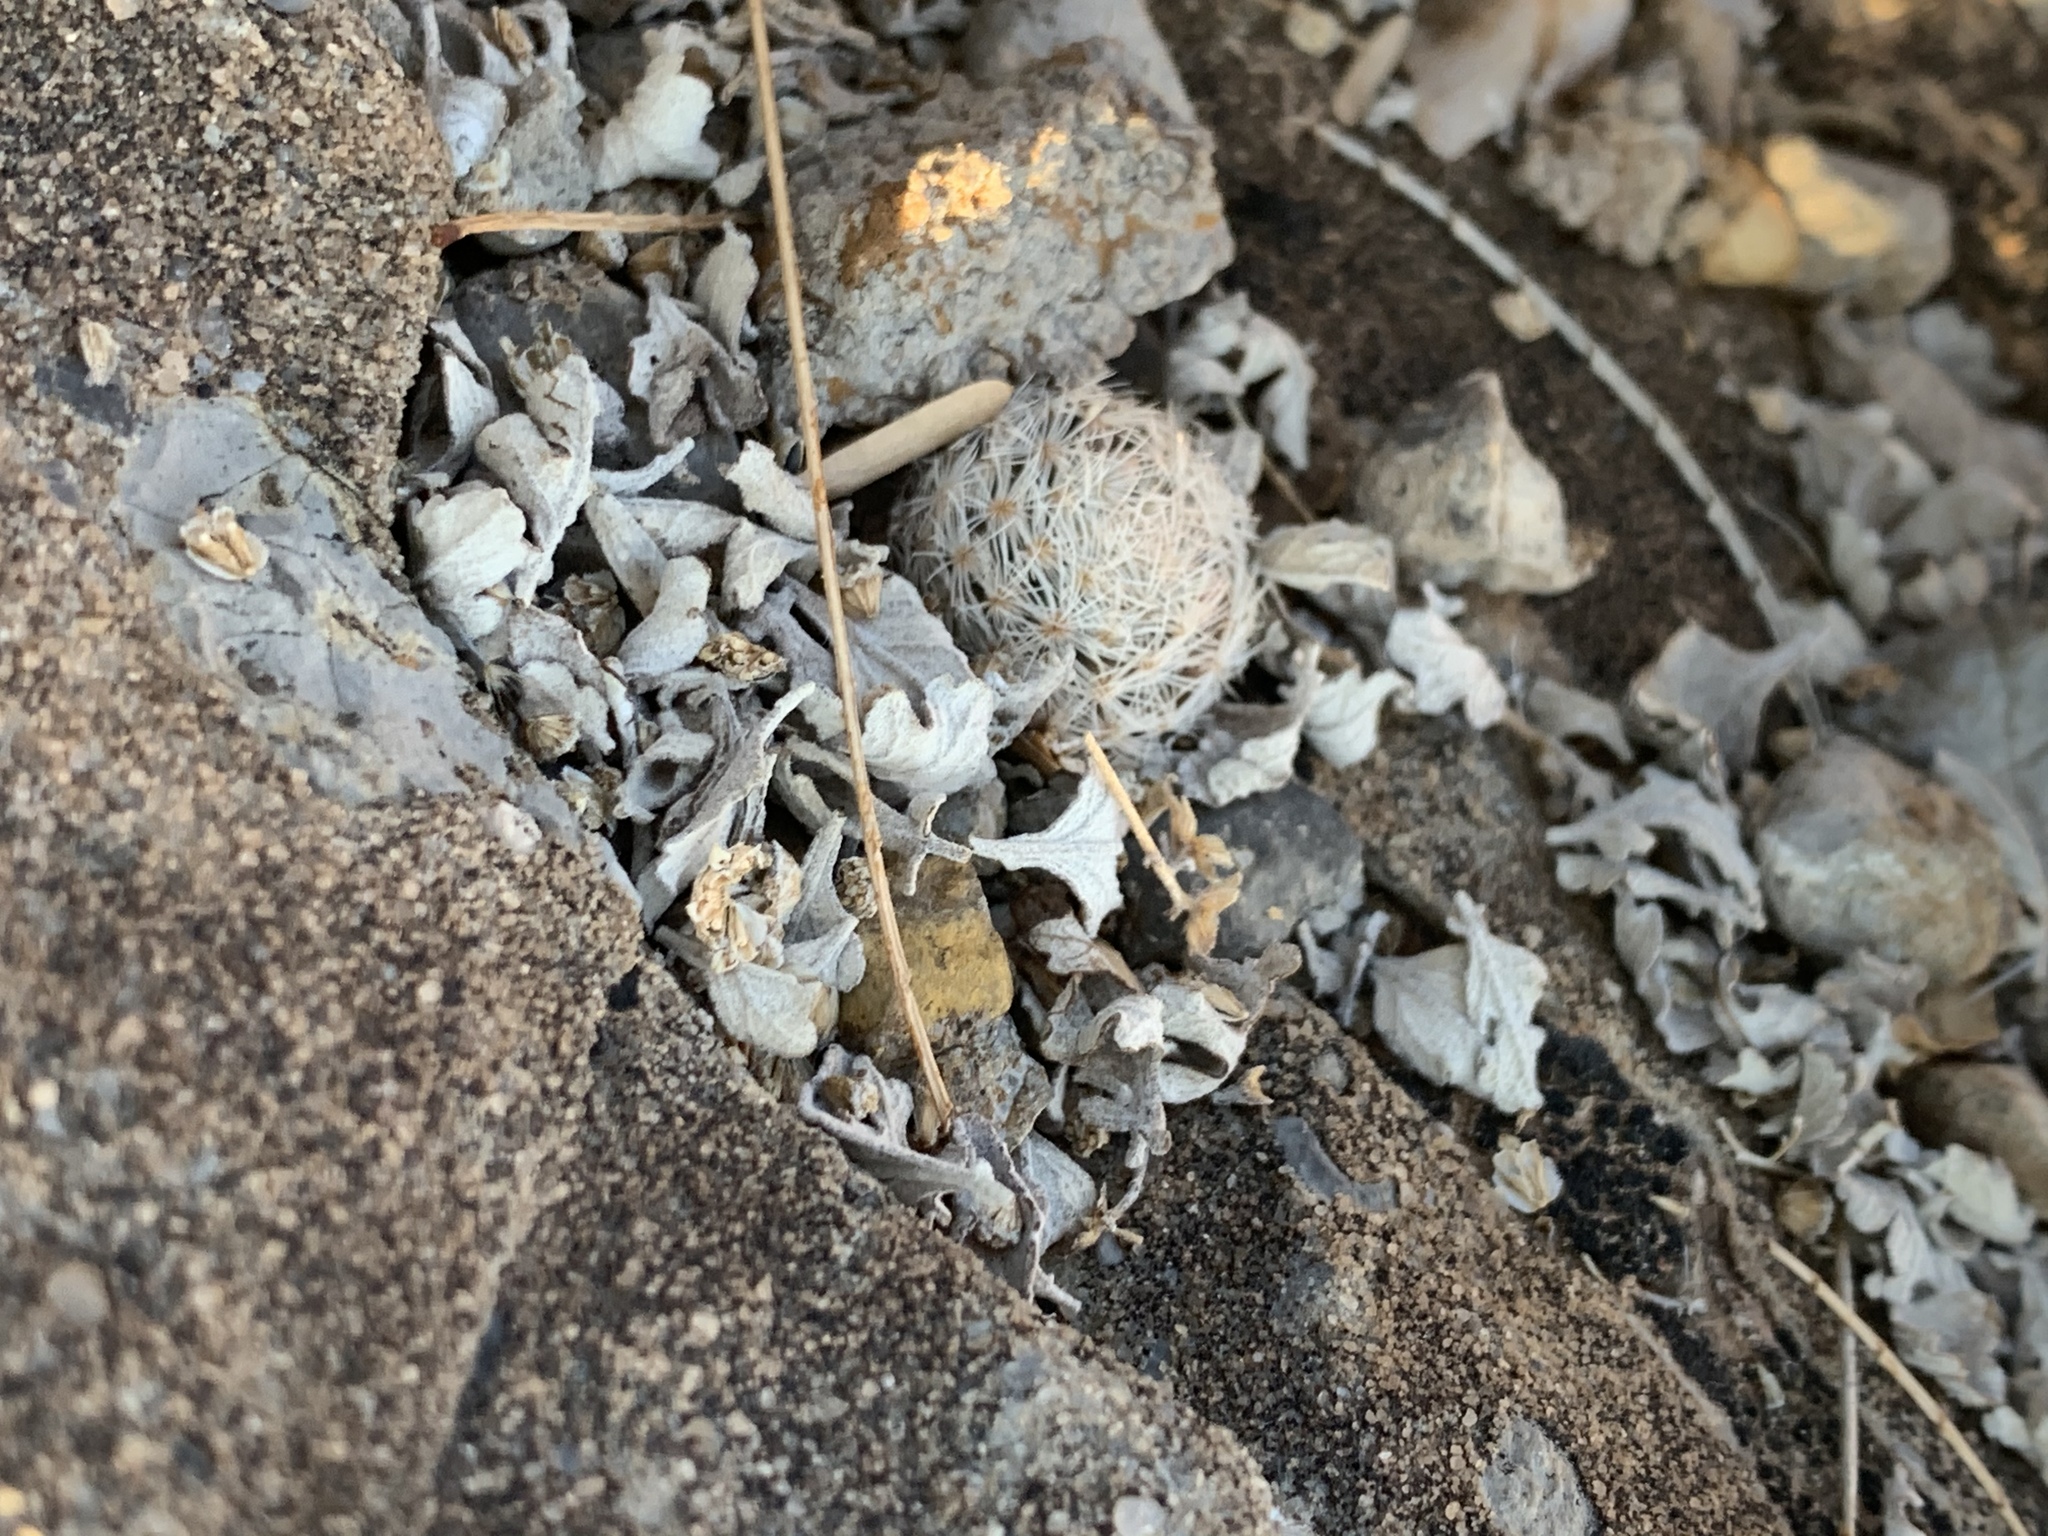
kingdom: Plantae
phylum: Tracheophyta
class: Magnoliopsida
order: Caryophyllales
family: Cactaceae
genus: Mammillaria
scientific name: Mammillaria lasiacantha
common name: Lace-spine nipple cactus
